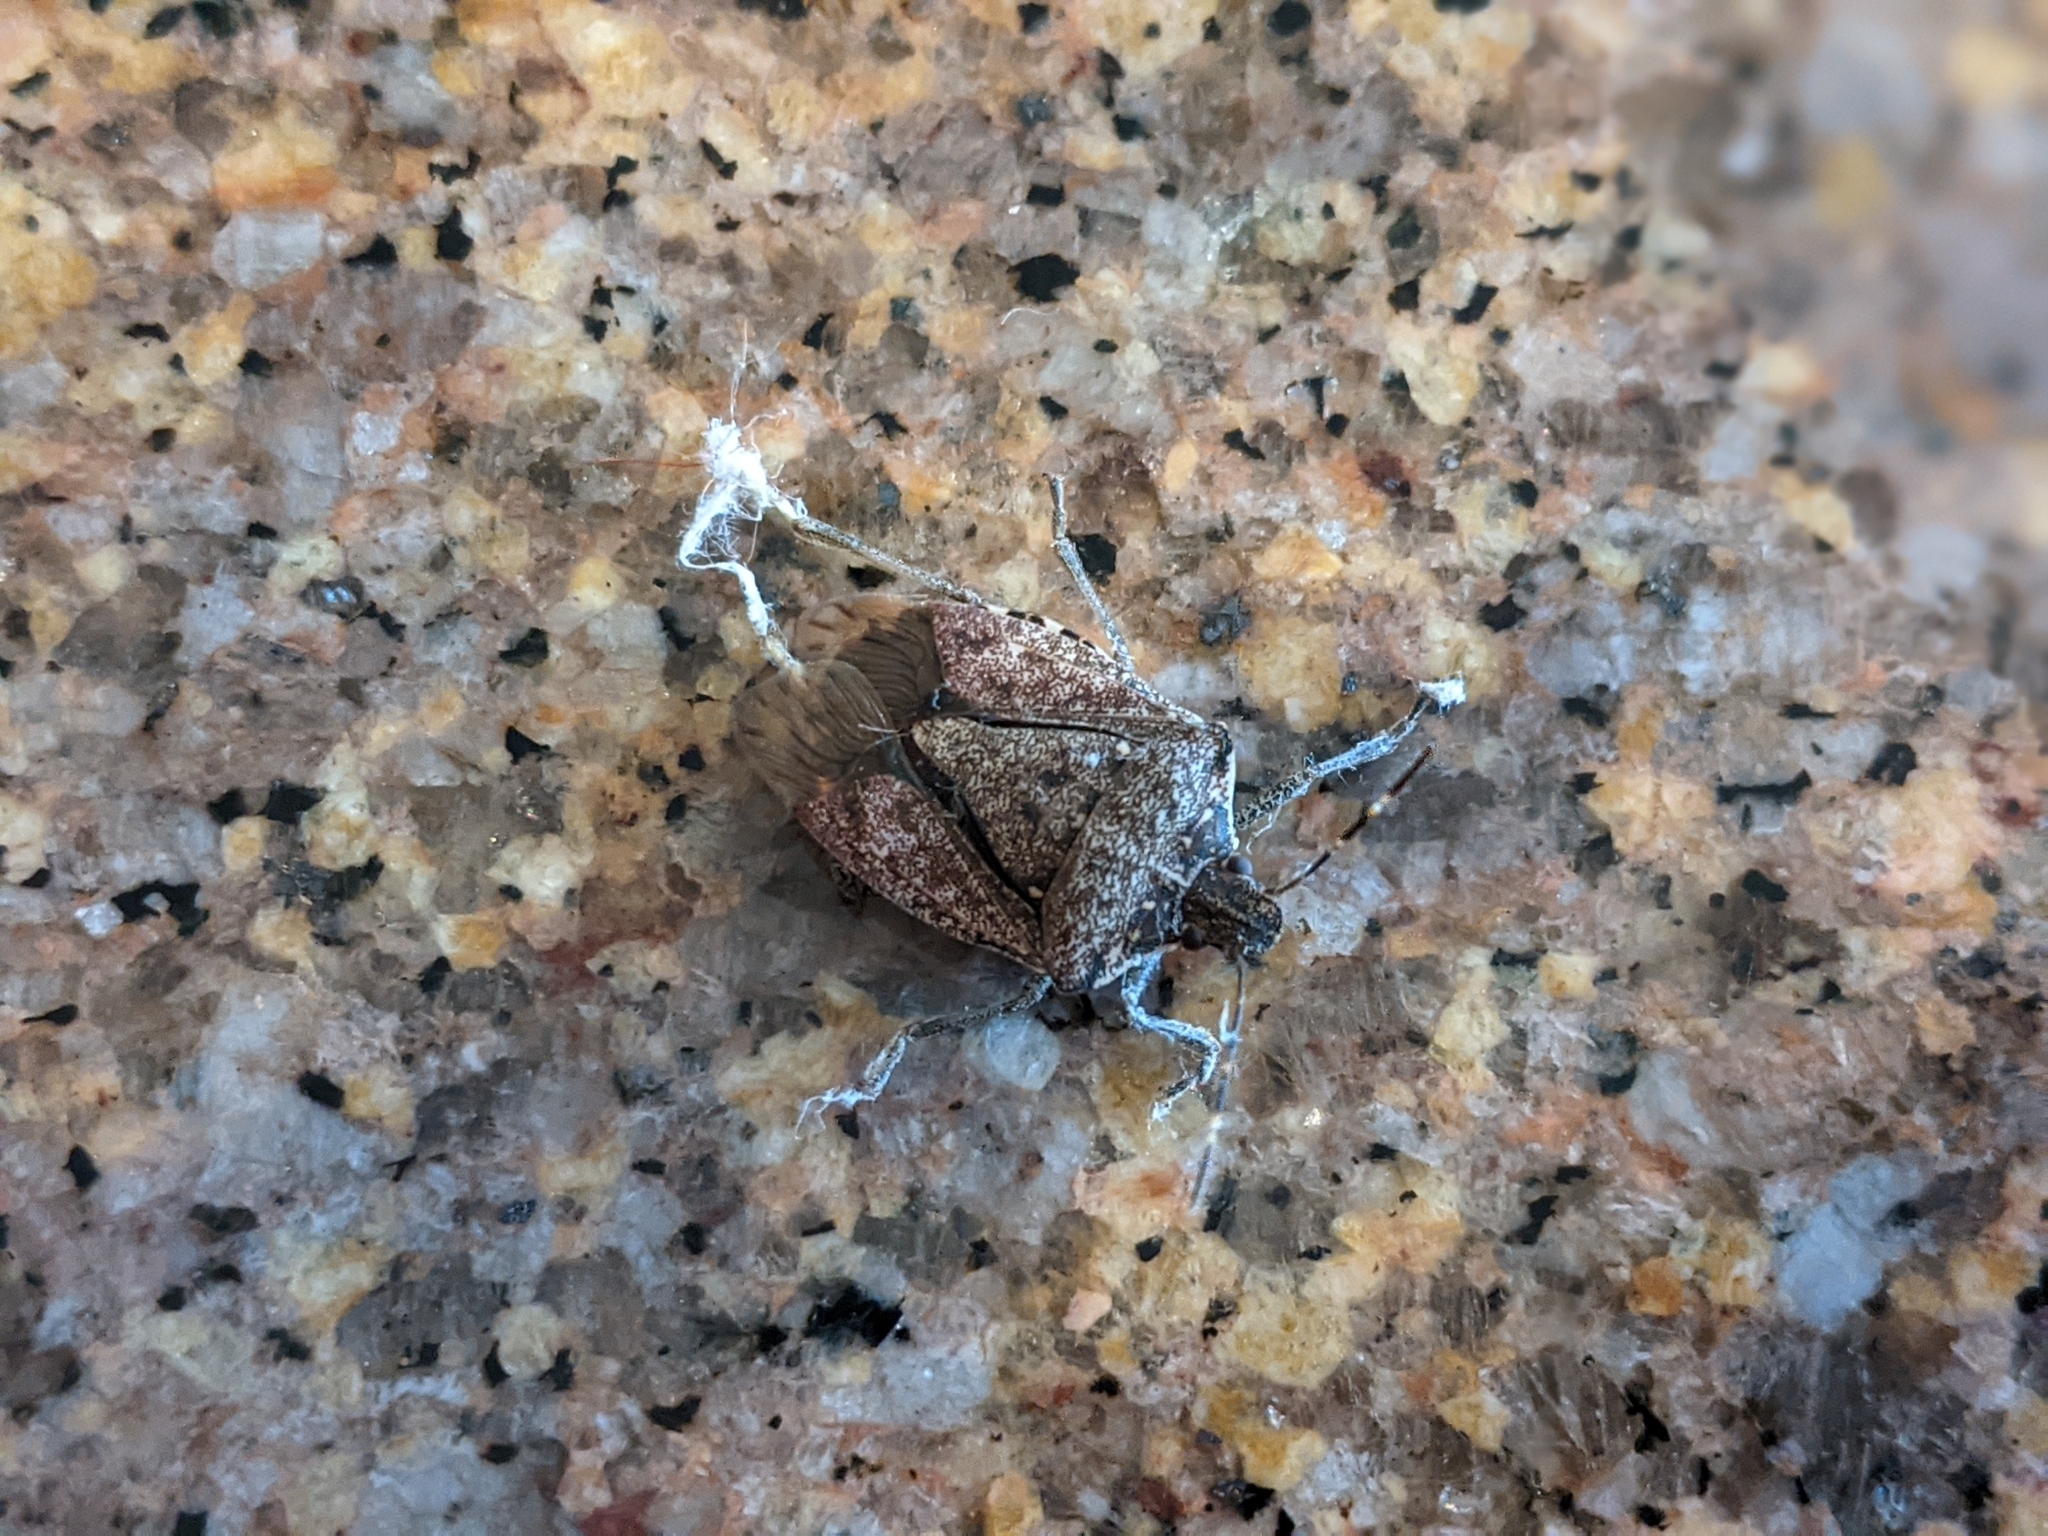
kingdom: Animalia
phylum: Arthropoda
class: Insecta
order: Hemiptera
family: Pentatomidae
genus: Halyomorpha
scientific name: Halyomorpha halys
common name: Brown marmorated stink bug
